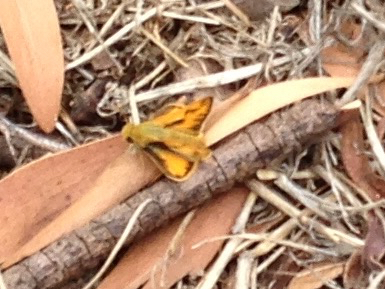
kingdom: Animalia
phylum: Arthropoda
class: Insecta
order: Lepidoptera
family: Hesperiidae
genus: Hylephila
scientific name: Hylephila phyleus
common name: Fiery skipper
